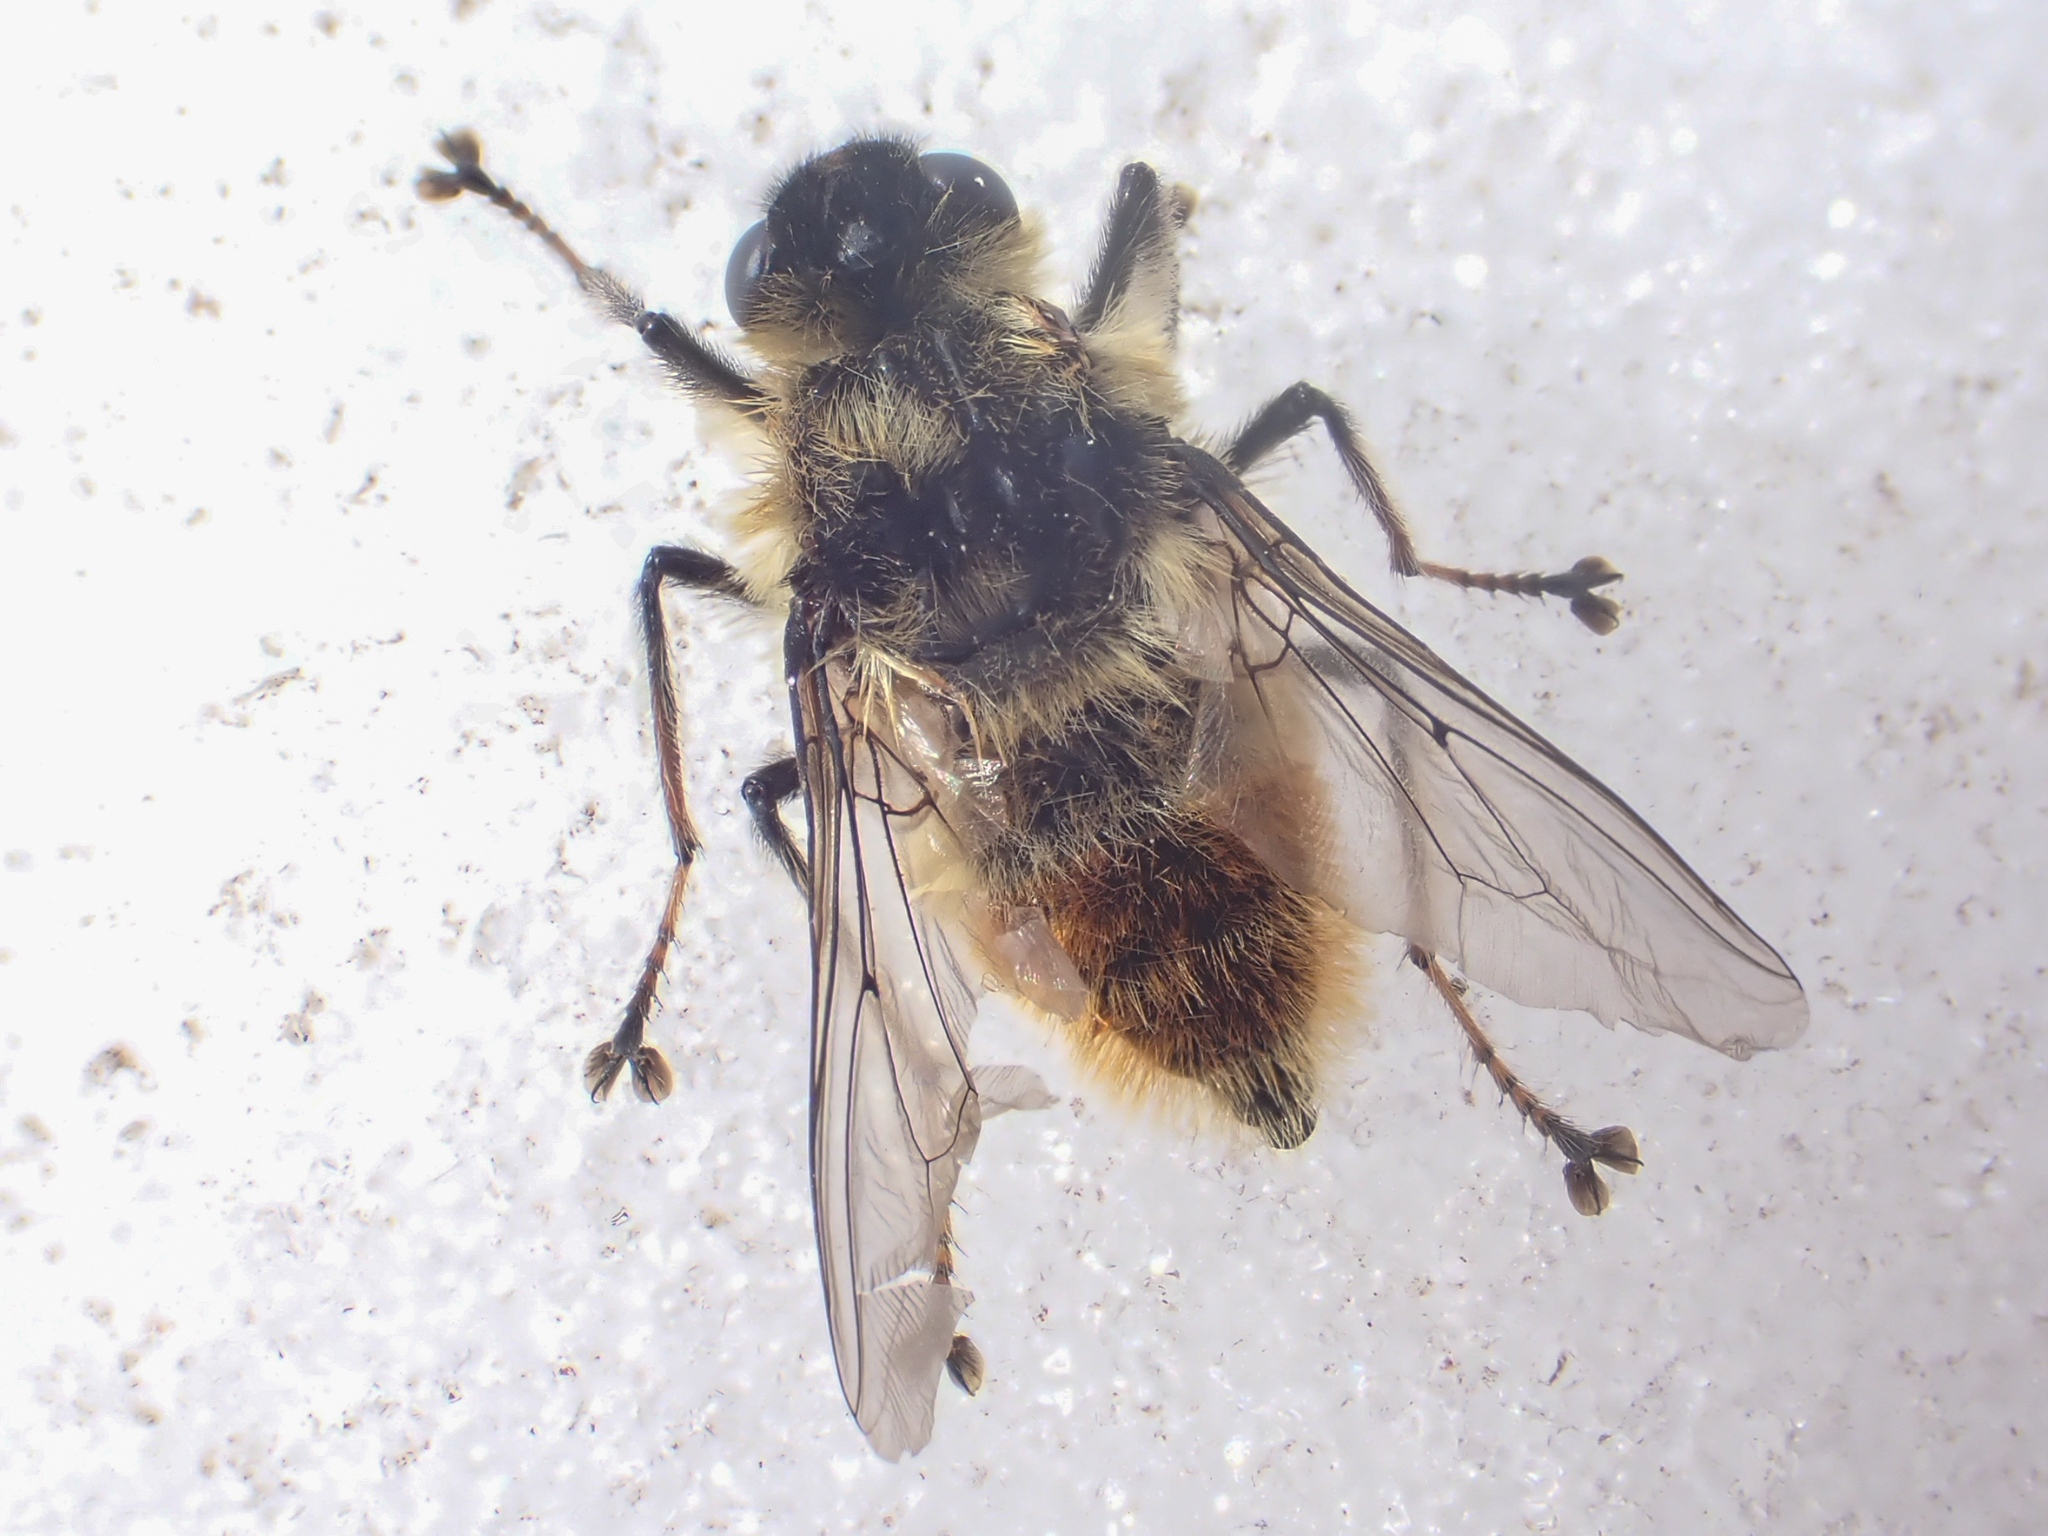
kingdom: Animalia
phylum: Arthropoda
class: Insecta
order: Diptera
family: Oestridae
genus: Hypoderma
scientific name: Hypoderma tarandi
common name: Botfly
